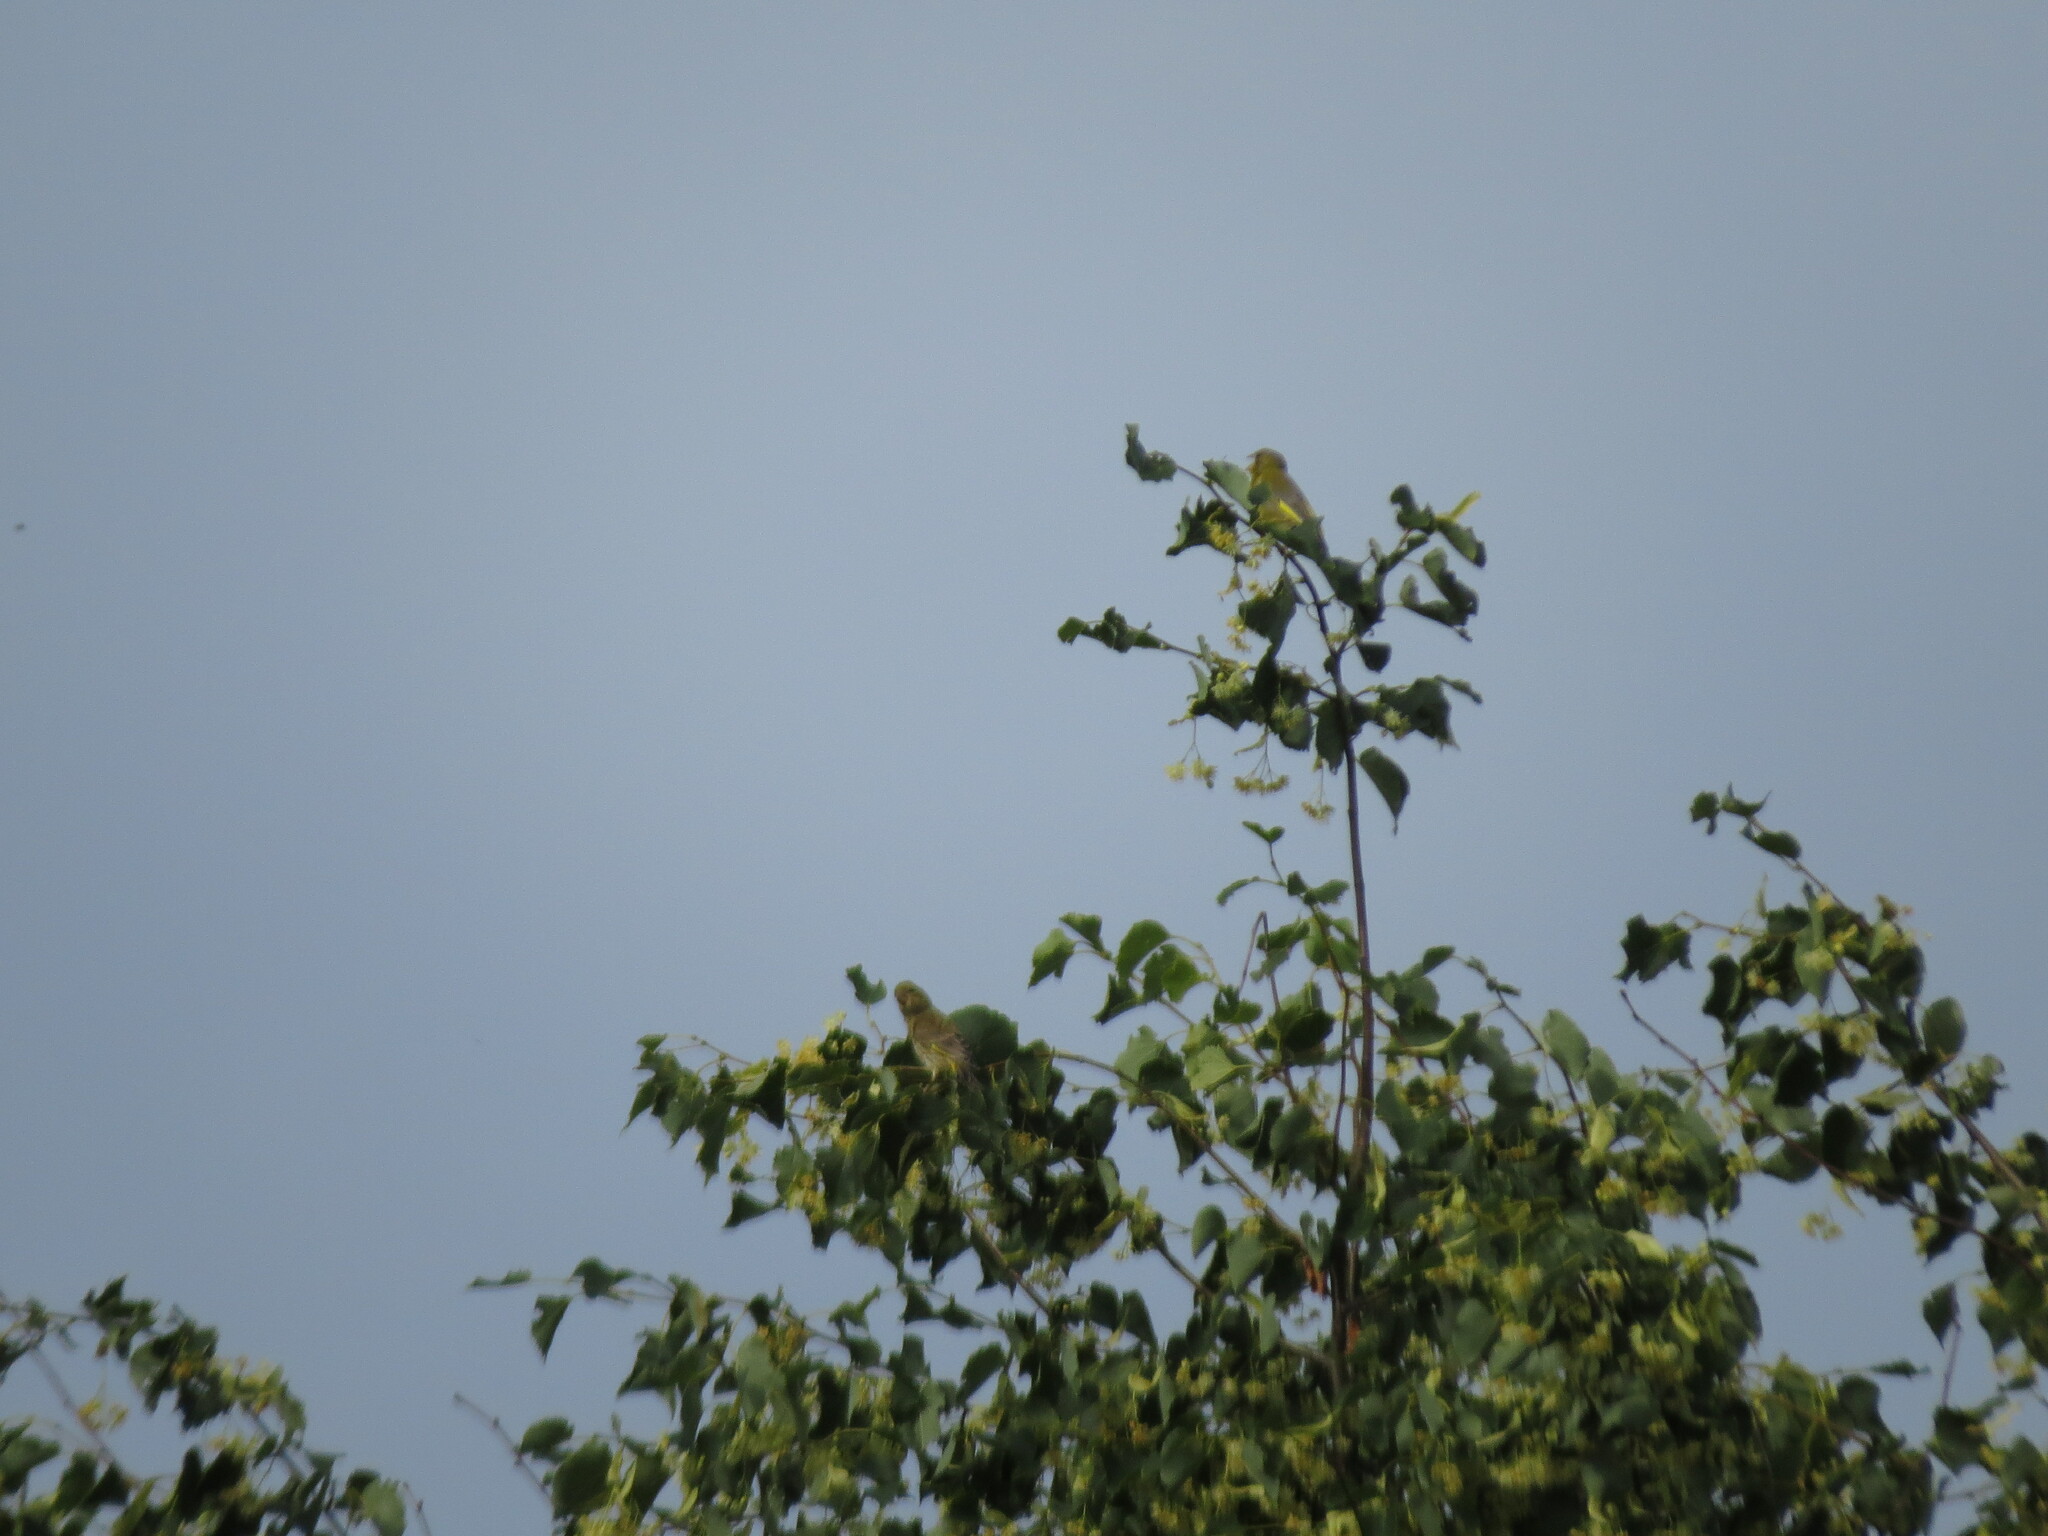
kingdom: Plantae
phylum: Tracheophyta
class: Liliopsida
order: Poales
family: Poaceae
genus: Chloris
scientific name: Chloris chloris
